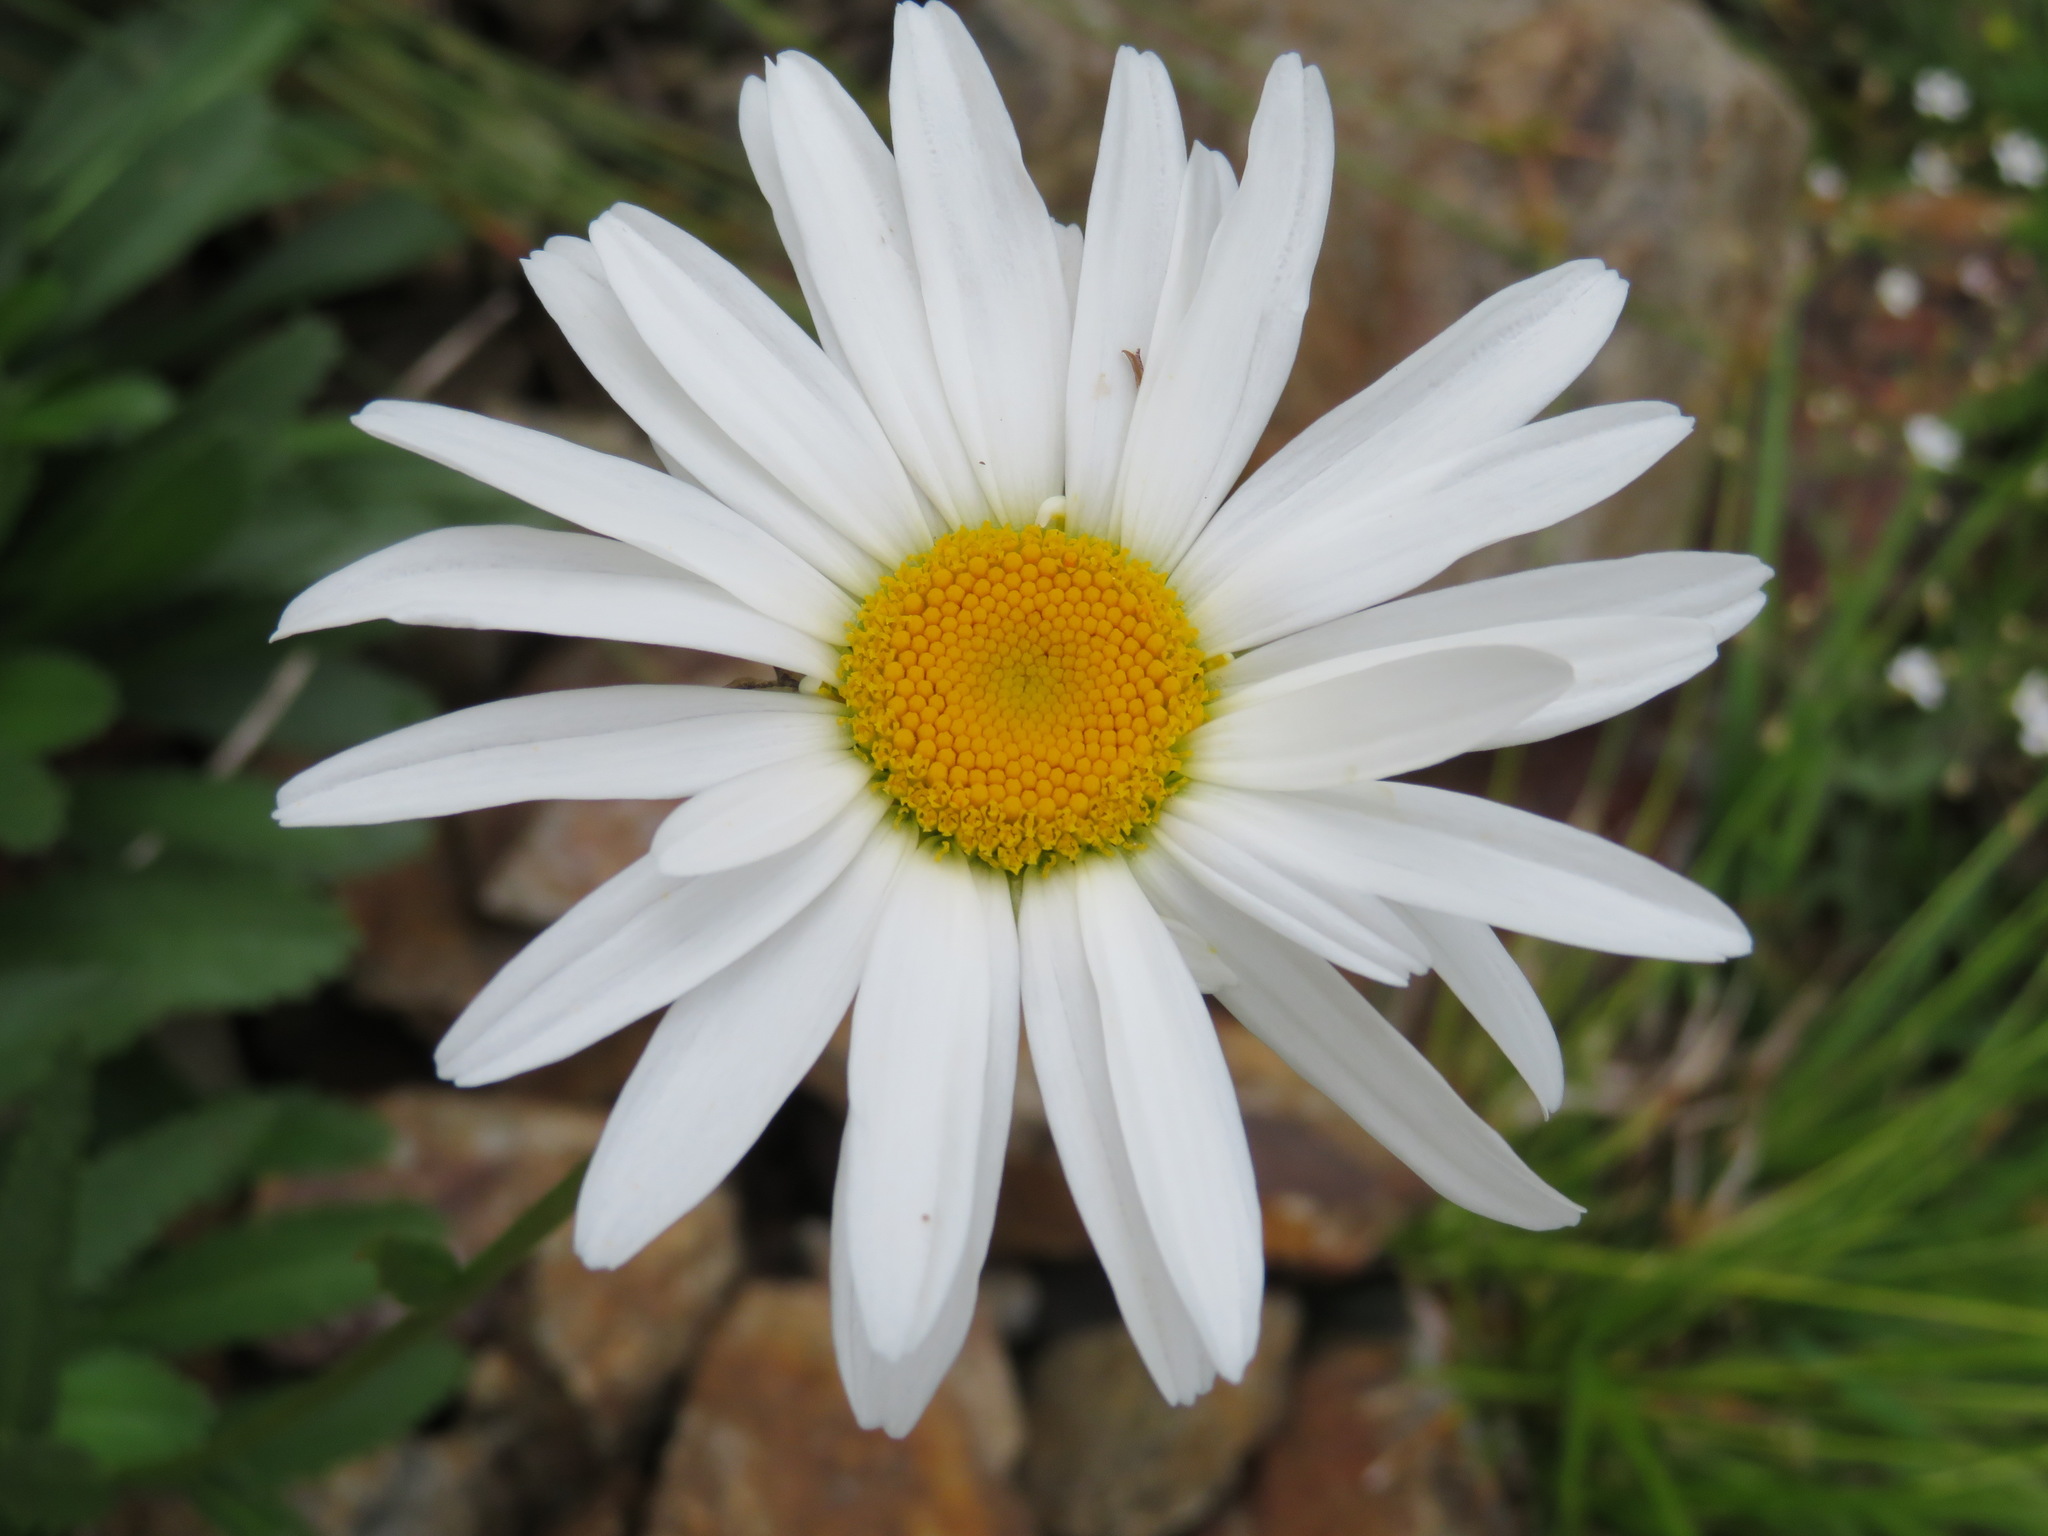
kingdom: Plantae
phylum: Tracheophyta
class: Magnoliopsida
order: Asterales
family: Asteraceae
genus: Leucanthemum
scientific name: Leucanthemum vulgare
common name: Oxeye daisy
